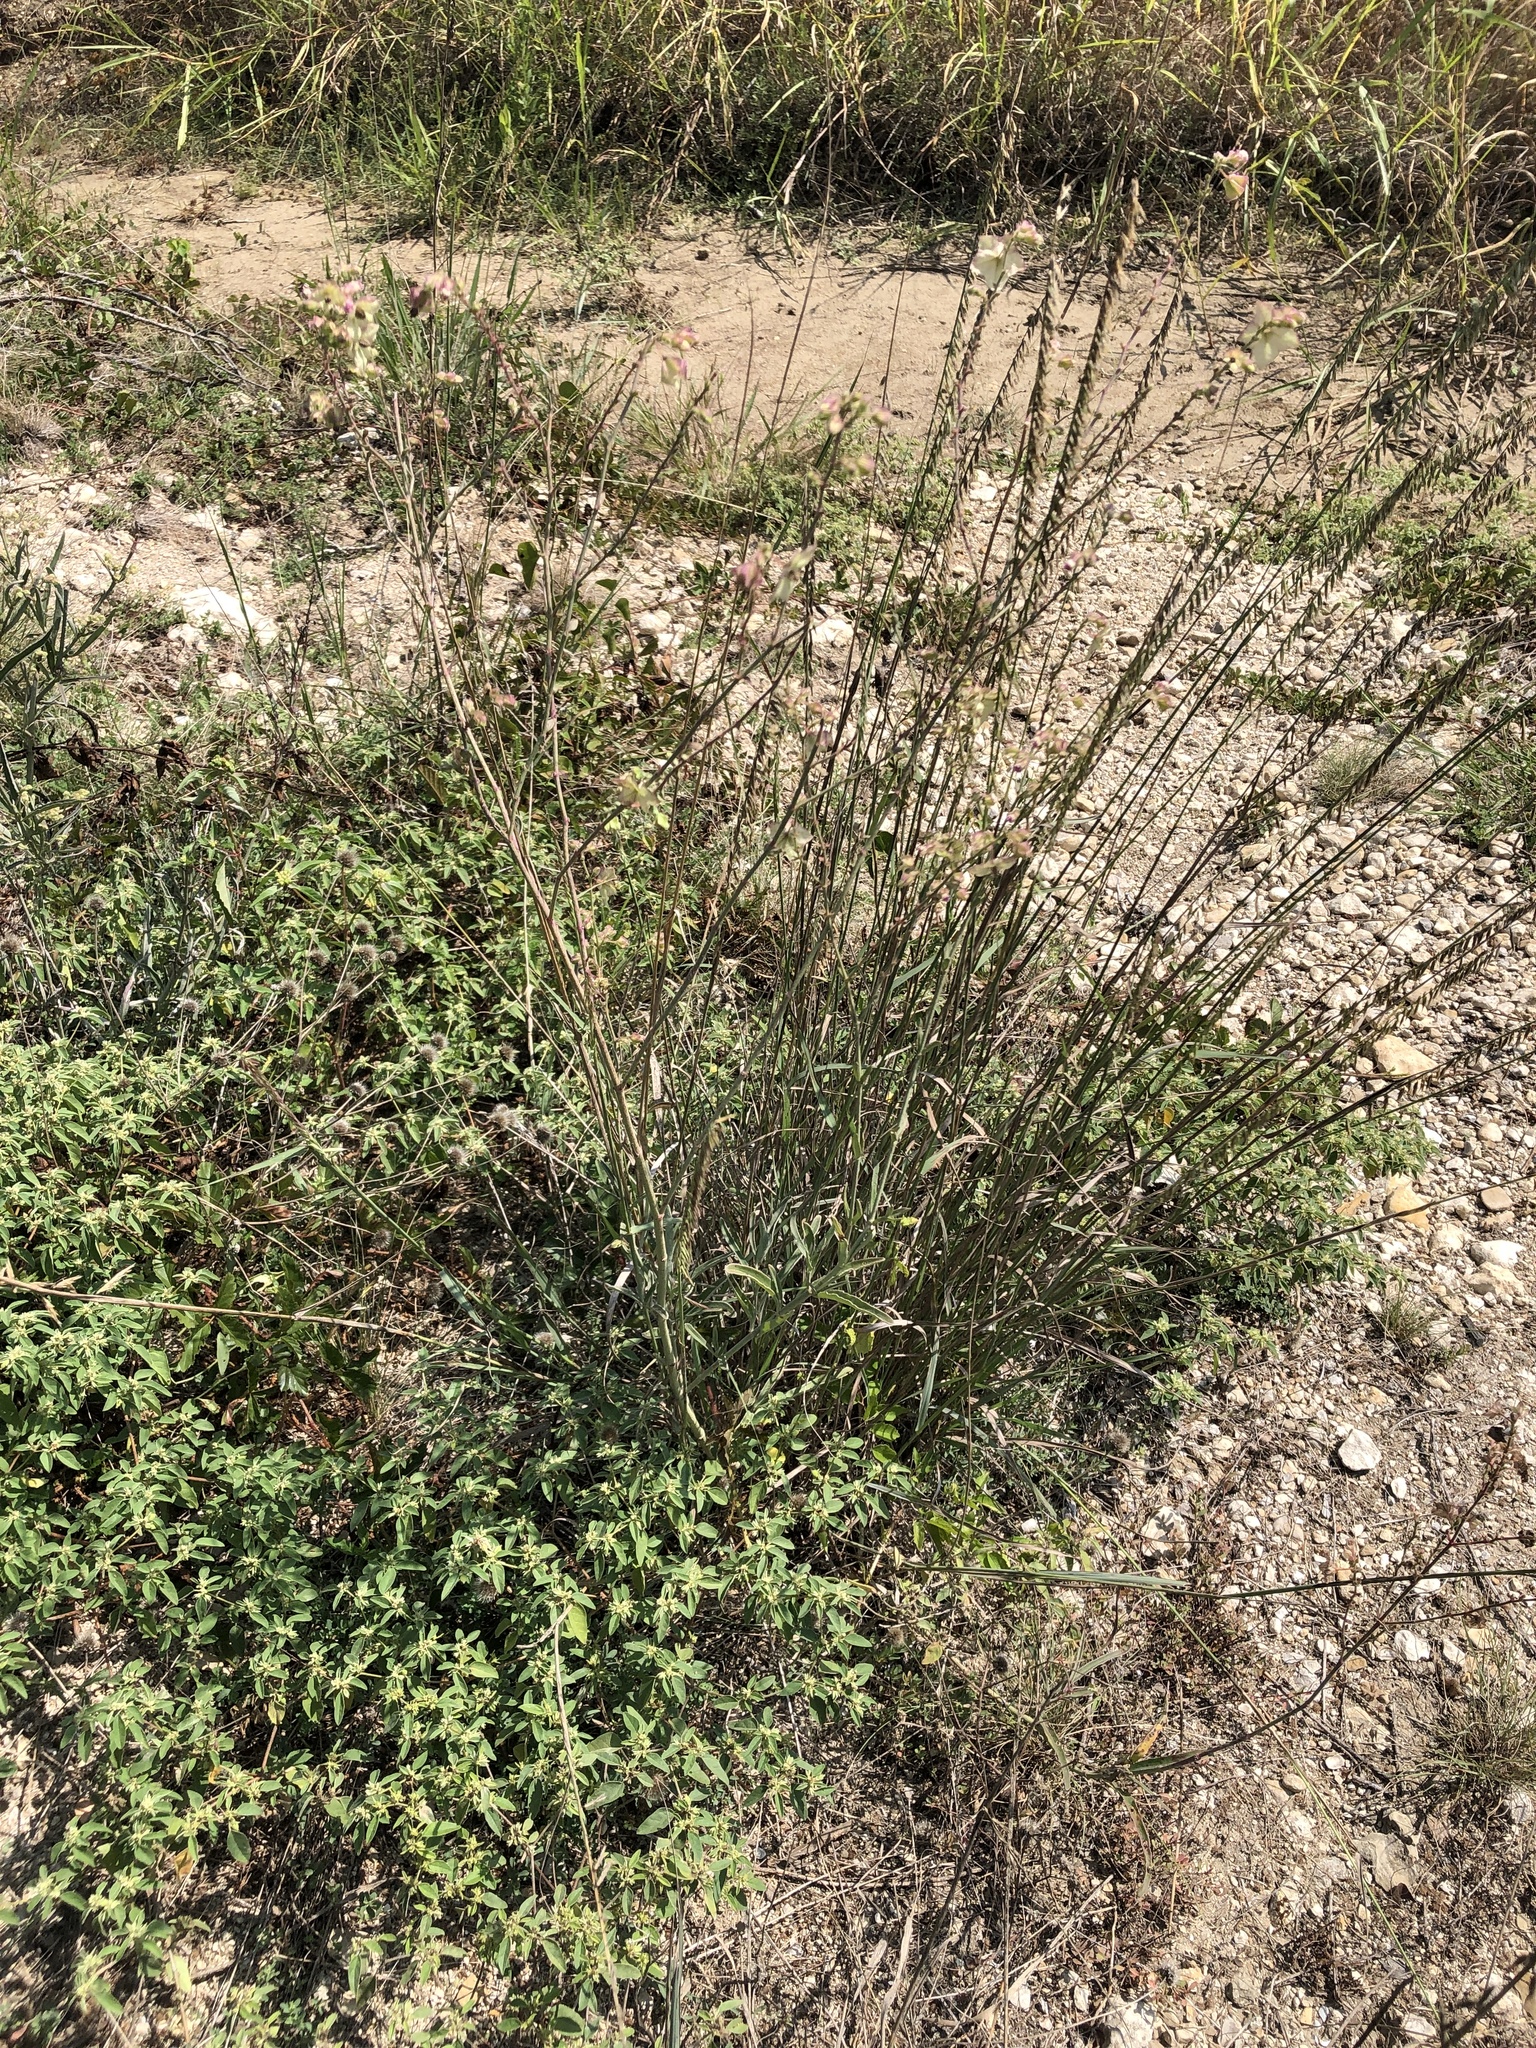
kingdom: Plantae
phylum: Tracheophyta
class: Magnoliopsida
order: Caryophyllales
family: Nyctaginaceae
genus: Mirabilis
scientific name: Mirabilis albida
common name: Hairy four-o'clock
